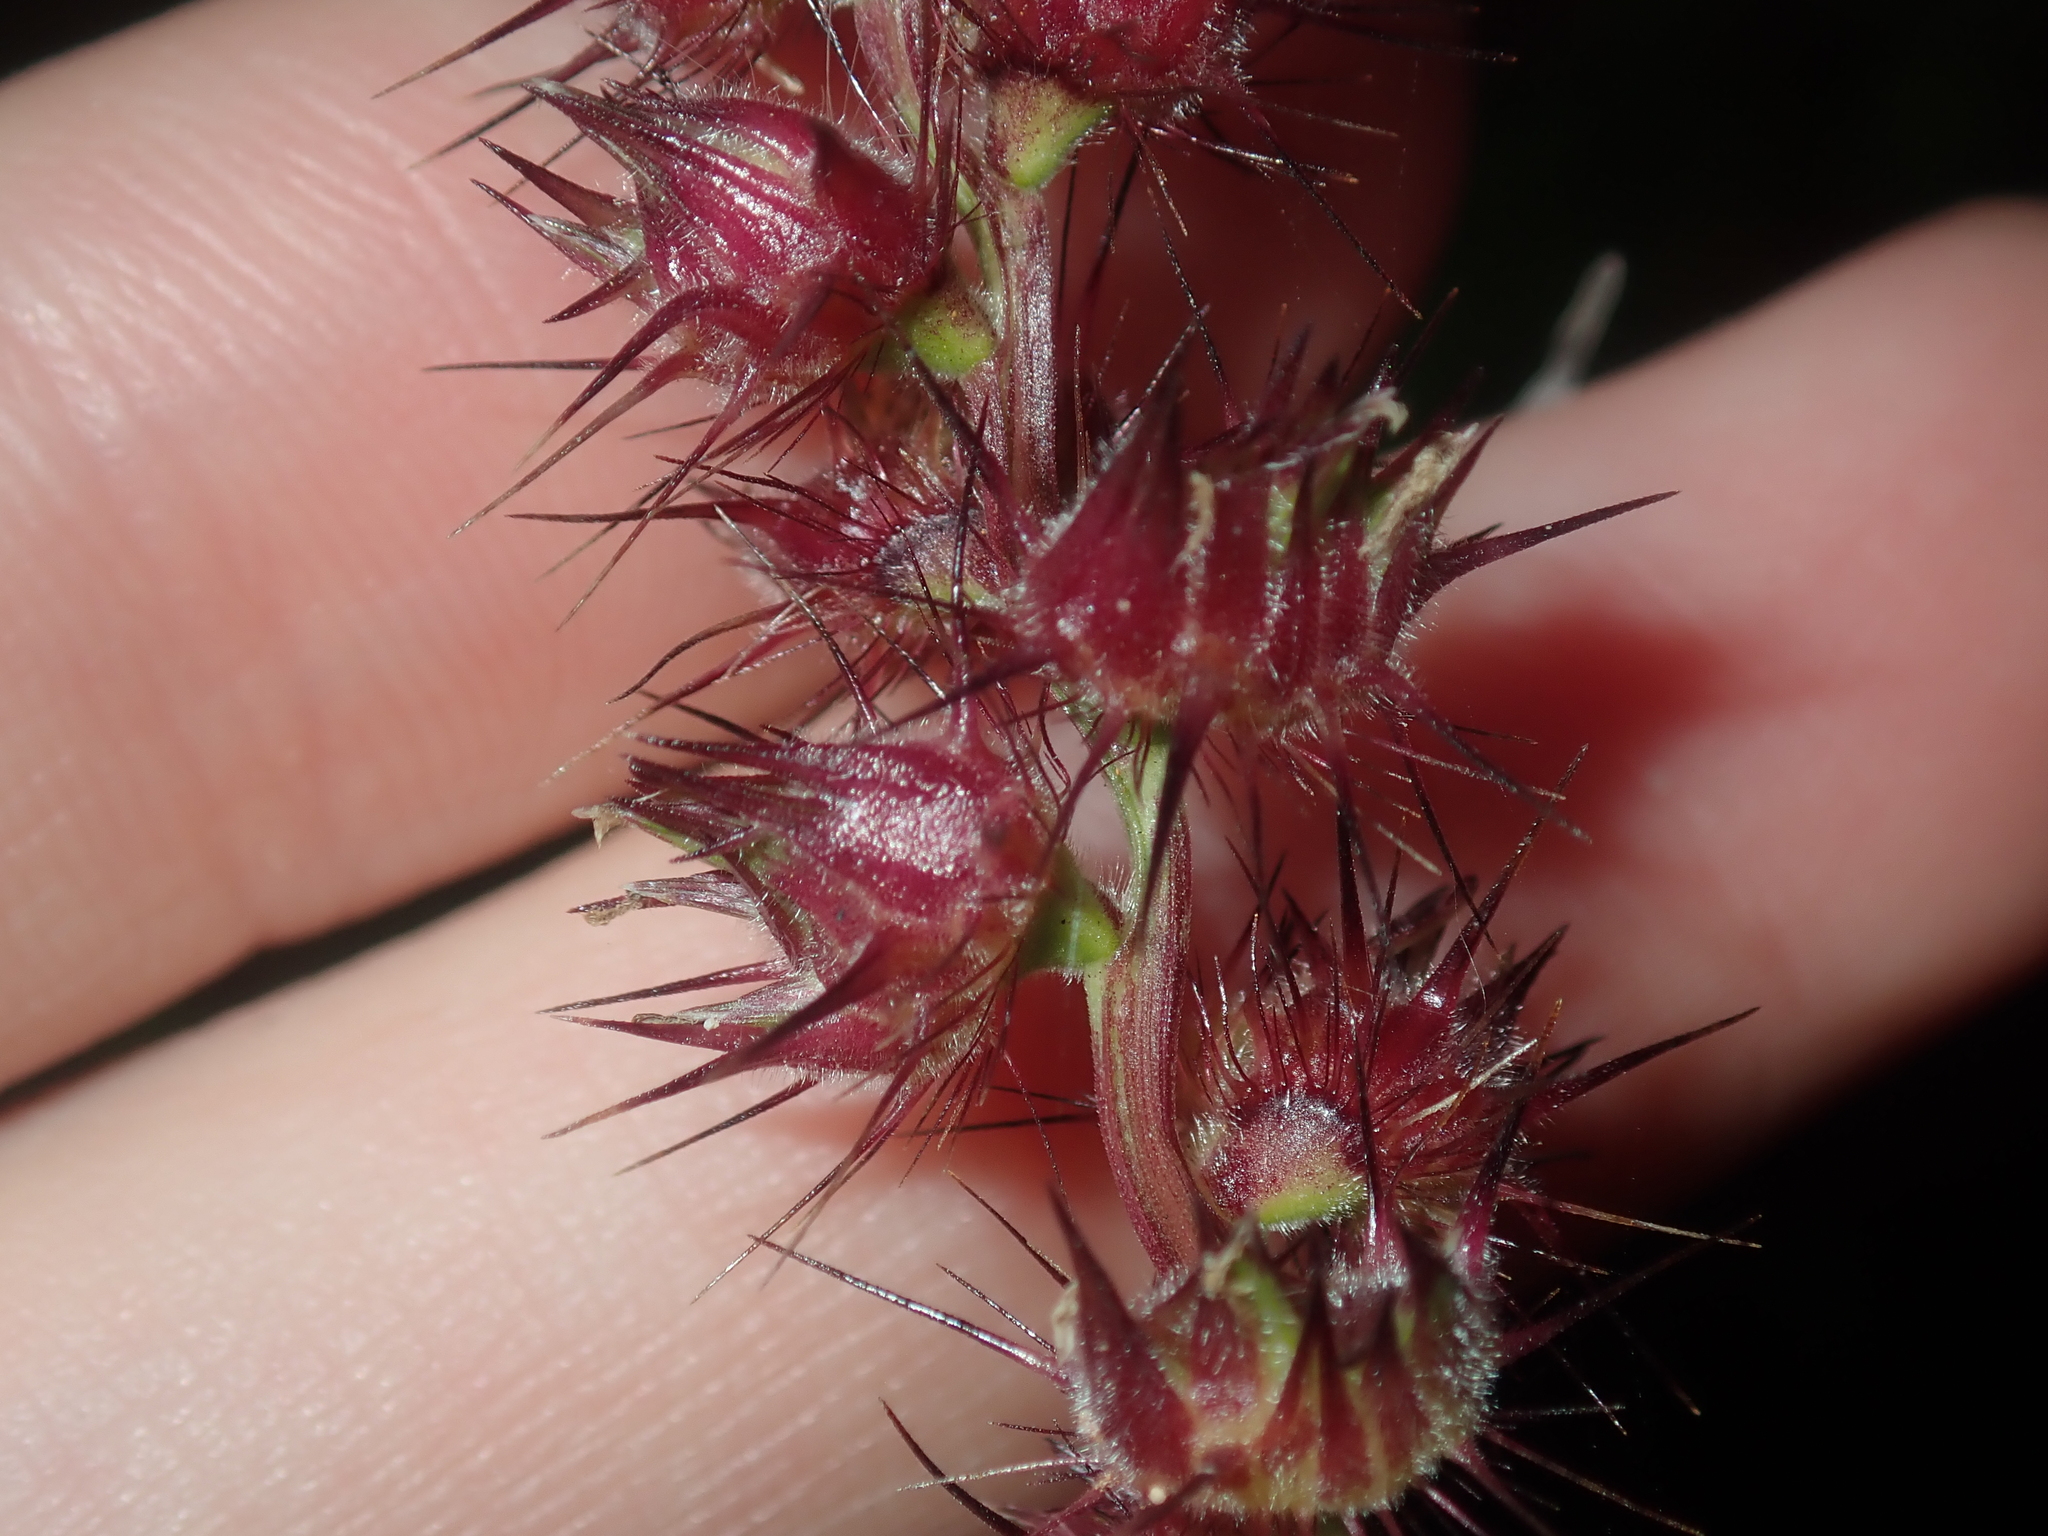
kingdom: Plantae
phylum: Tracheophyta
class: Liliopsida
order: Poales
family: Poaceae
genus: Cenchrus
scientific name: Cenchrus echinatus
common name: Southern sandbur
